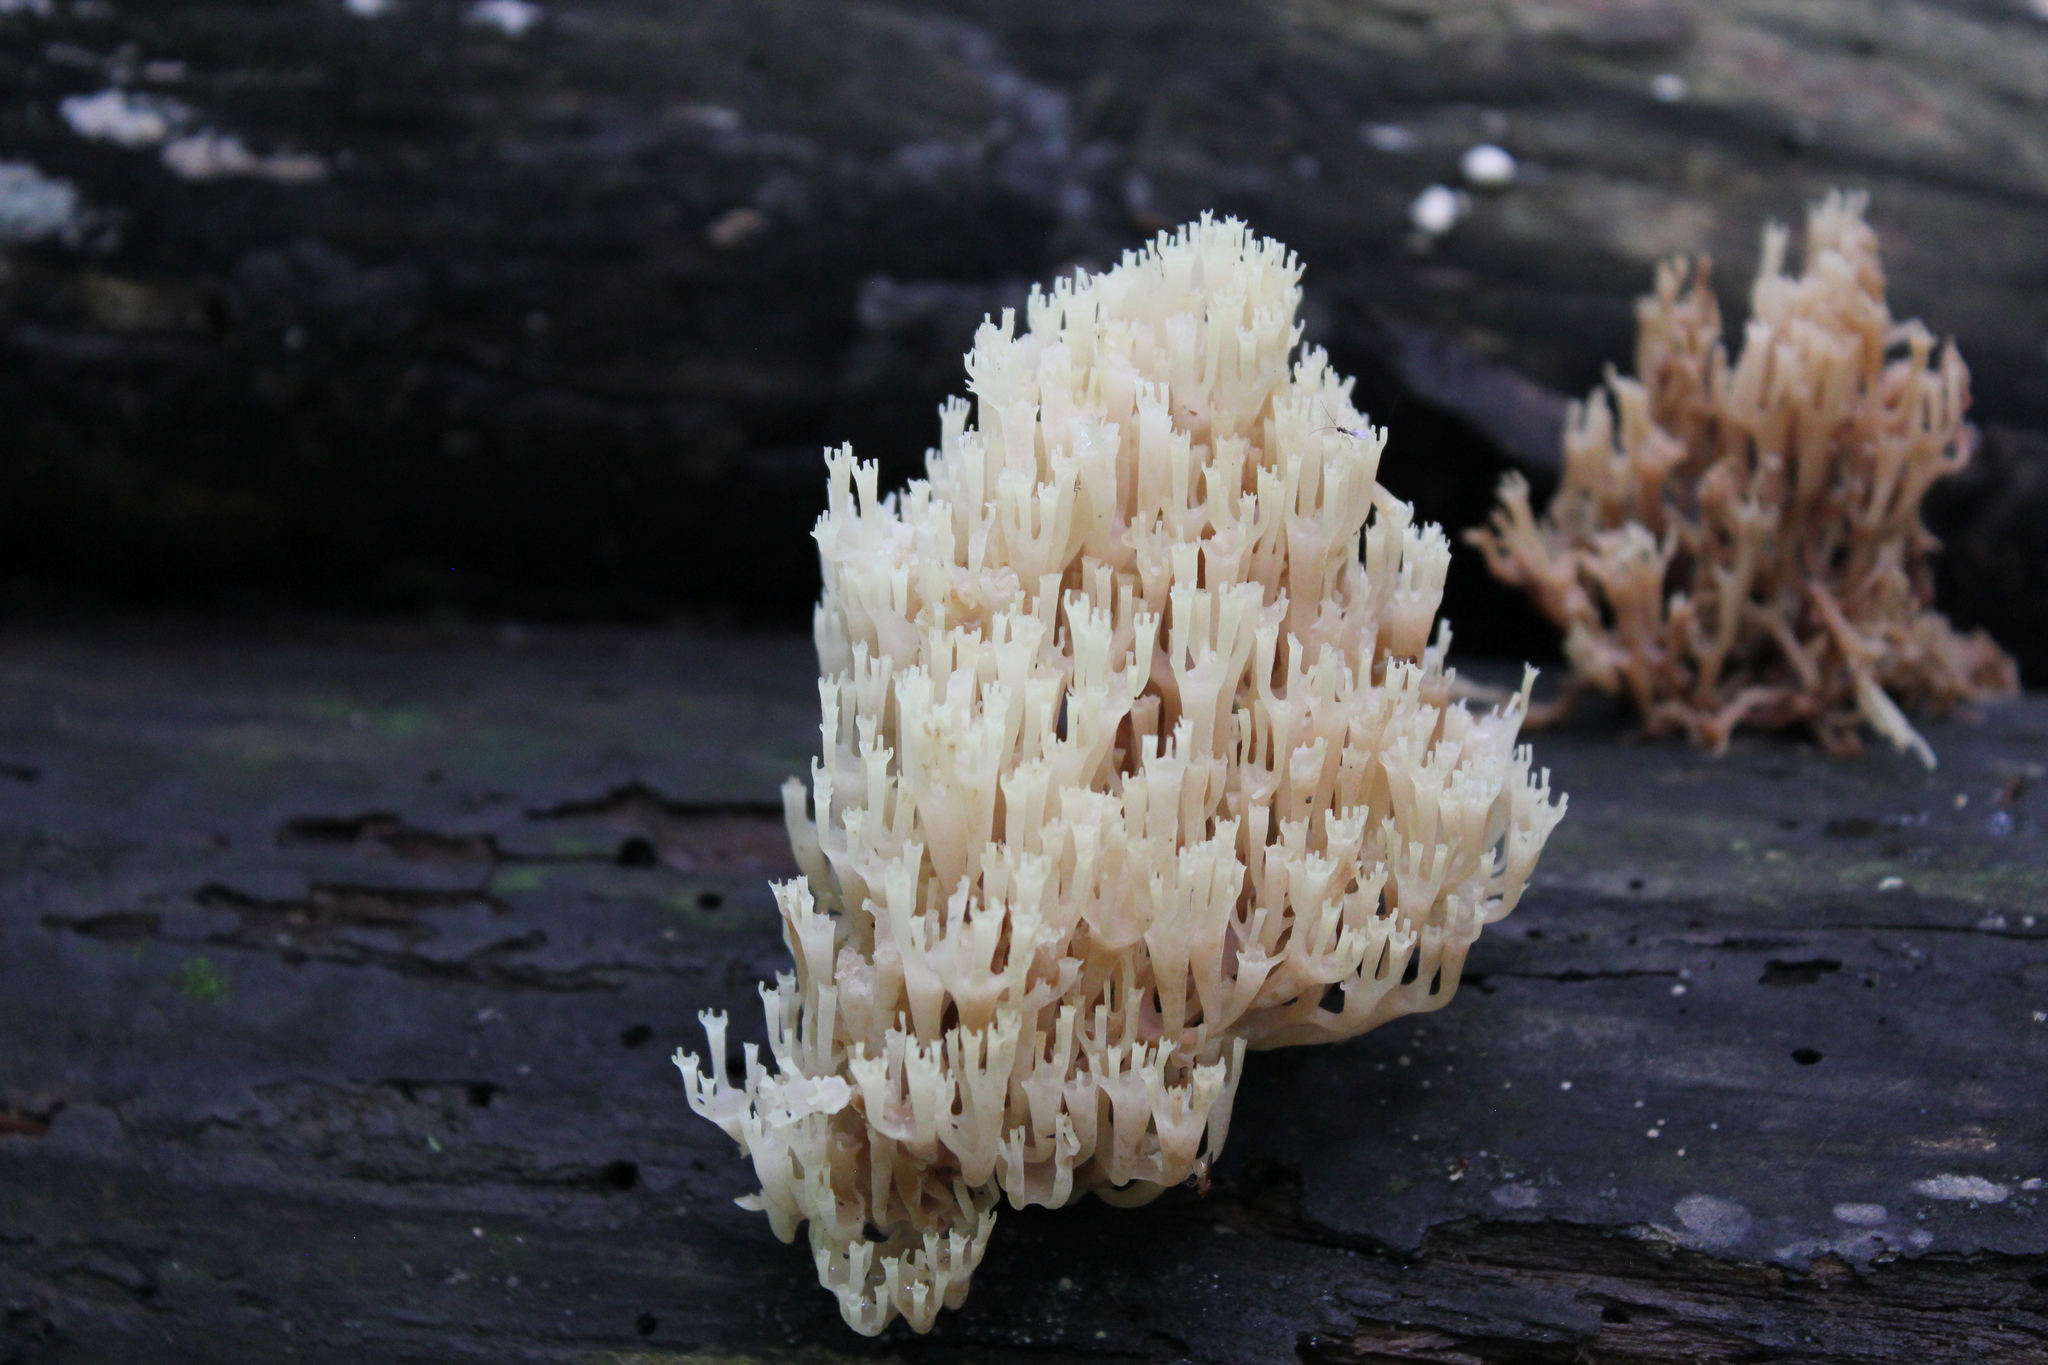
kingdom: Fungi
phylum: Basidiomycota
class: Agaricomycetes
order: Russulales
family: Auriscalpiaceae
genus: Artomyces
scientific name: Artomyces pyxidatus
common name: Crown-tipped coral fungus
